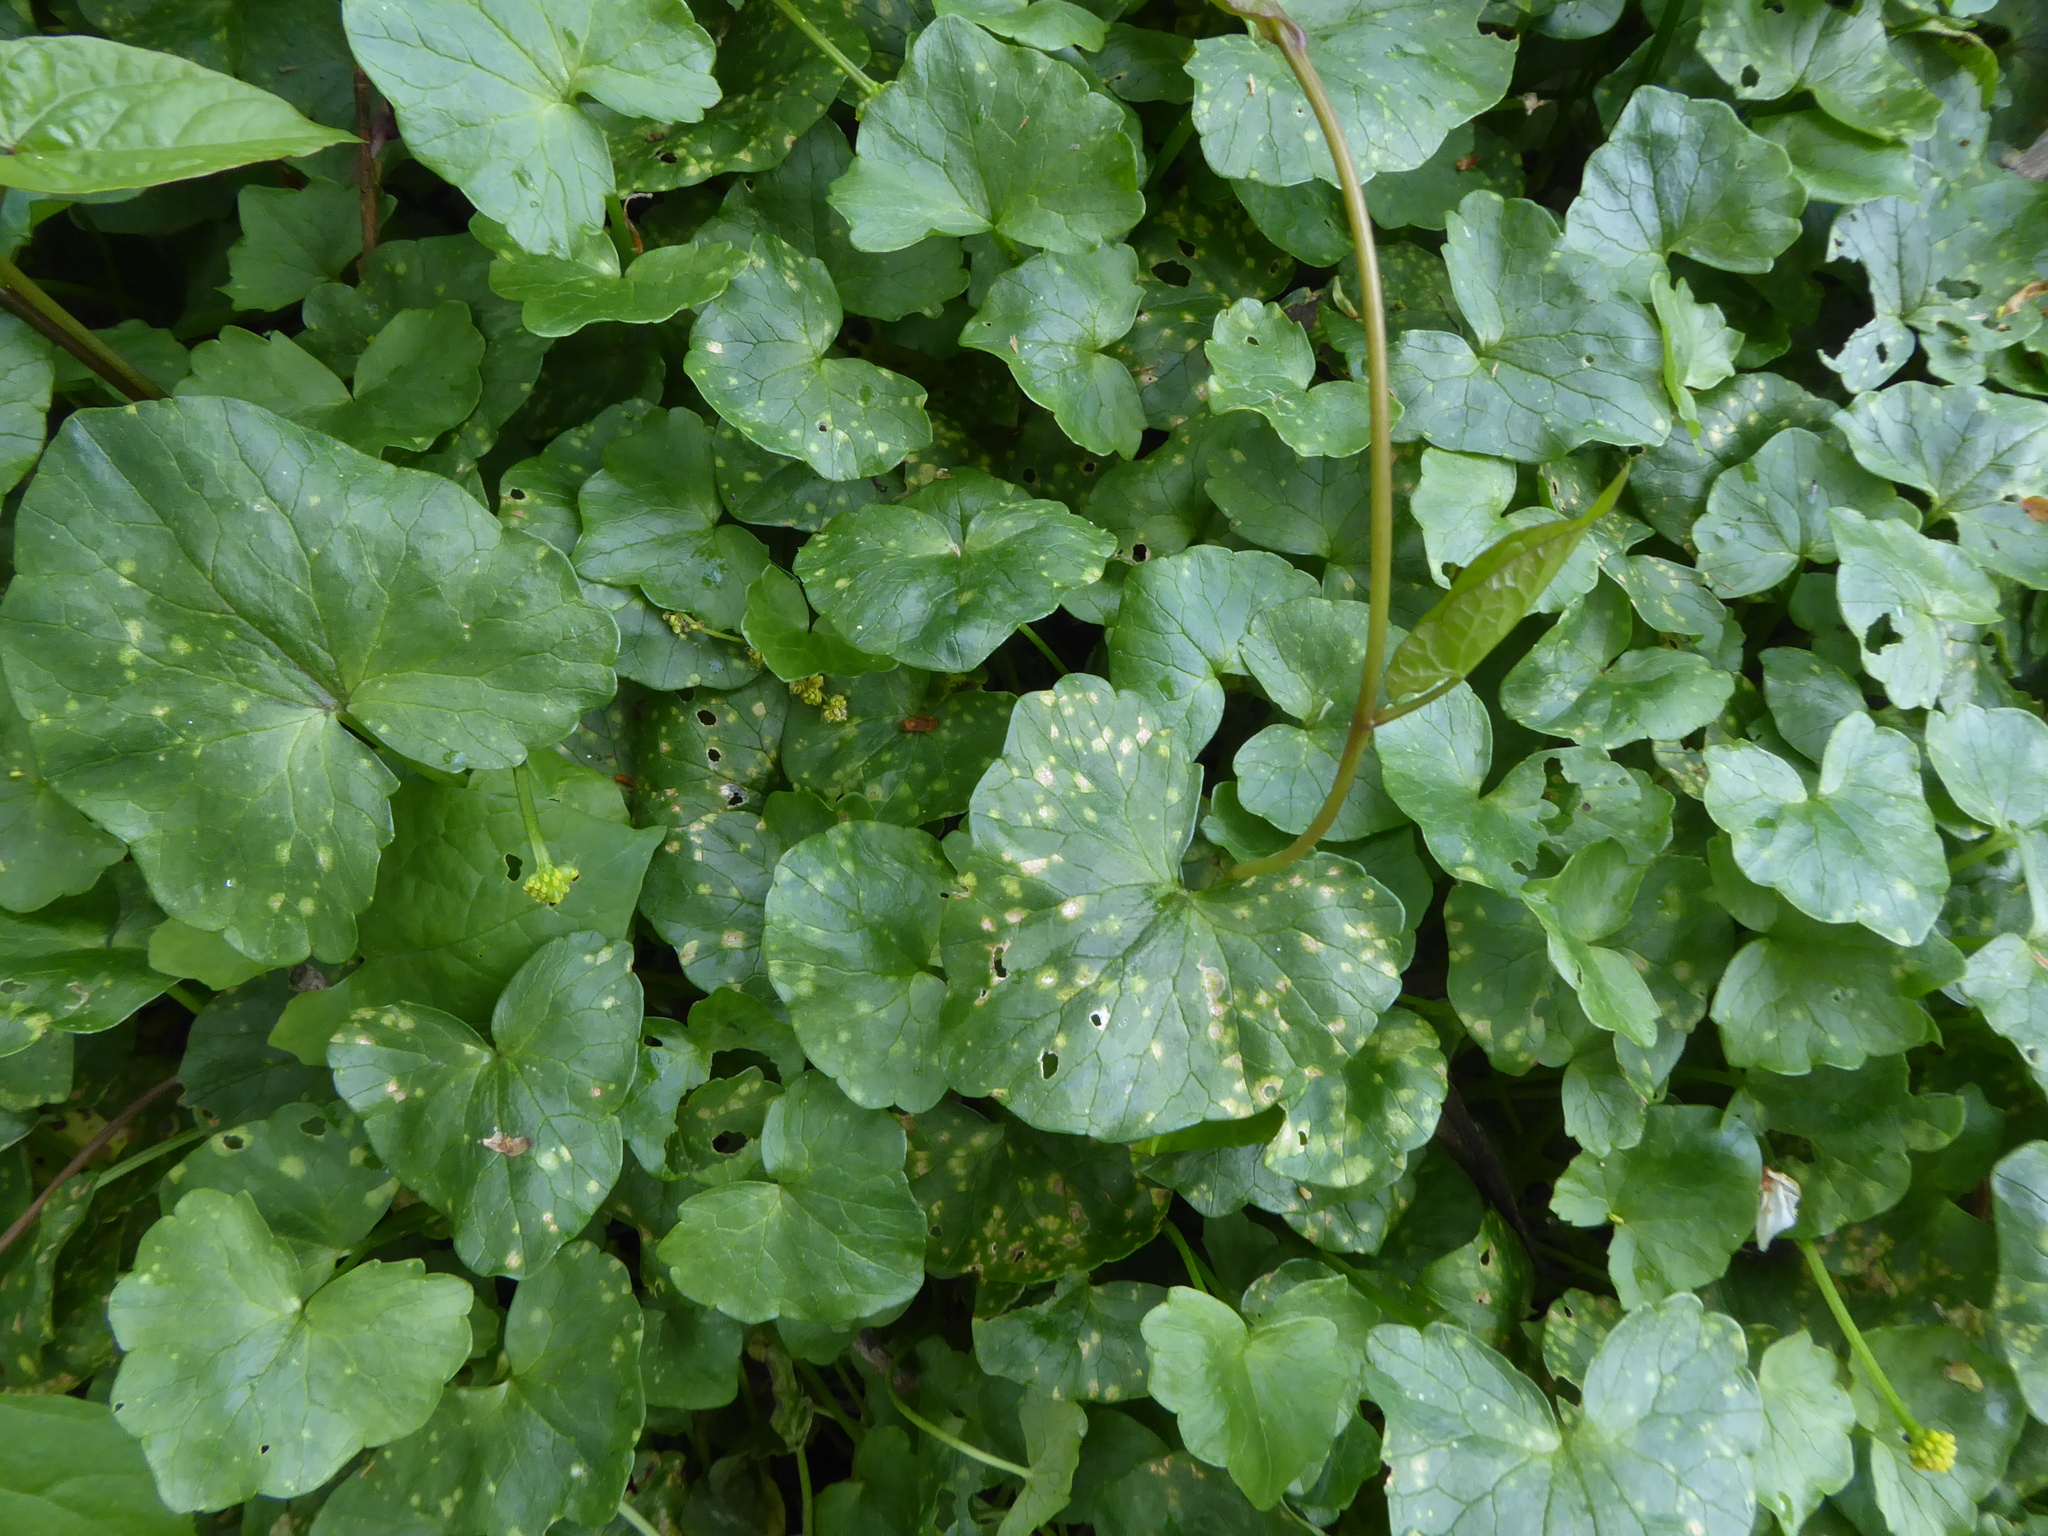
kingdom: Plantae
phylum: Tracheophyta
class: Magnoliopsida
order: Ranunculales
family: Ranunculaceae
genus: Ficaria
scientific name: Ficaria verna
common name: Lesser celandine
